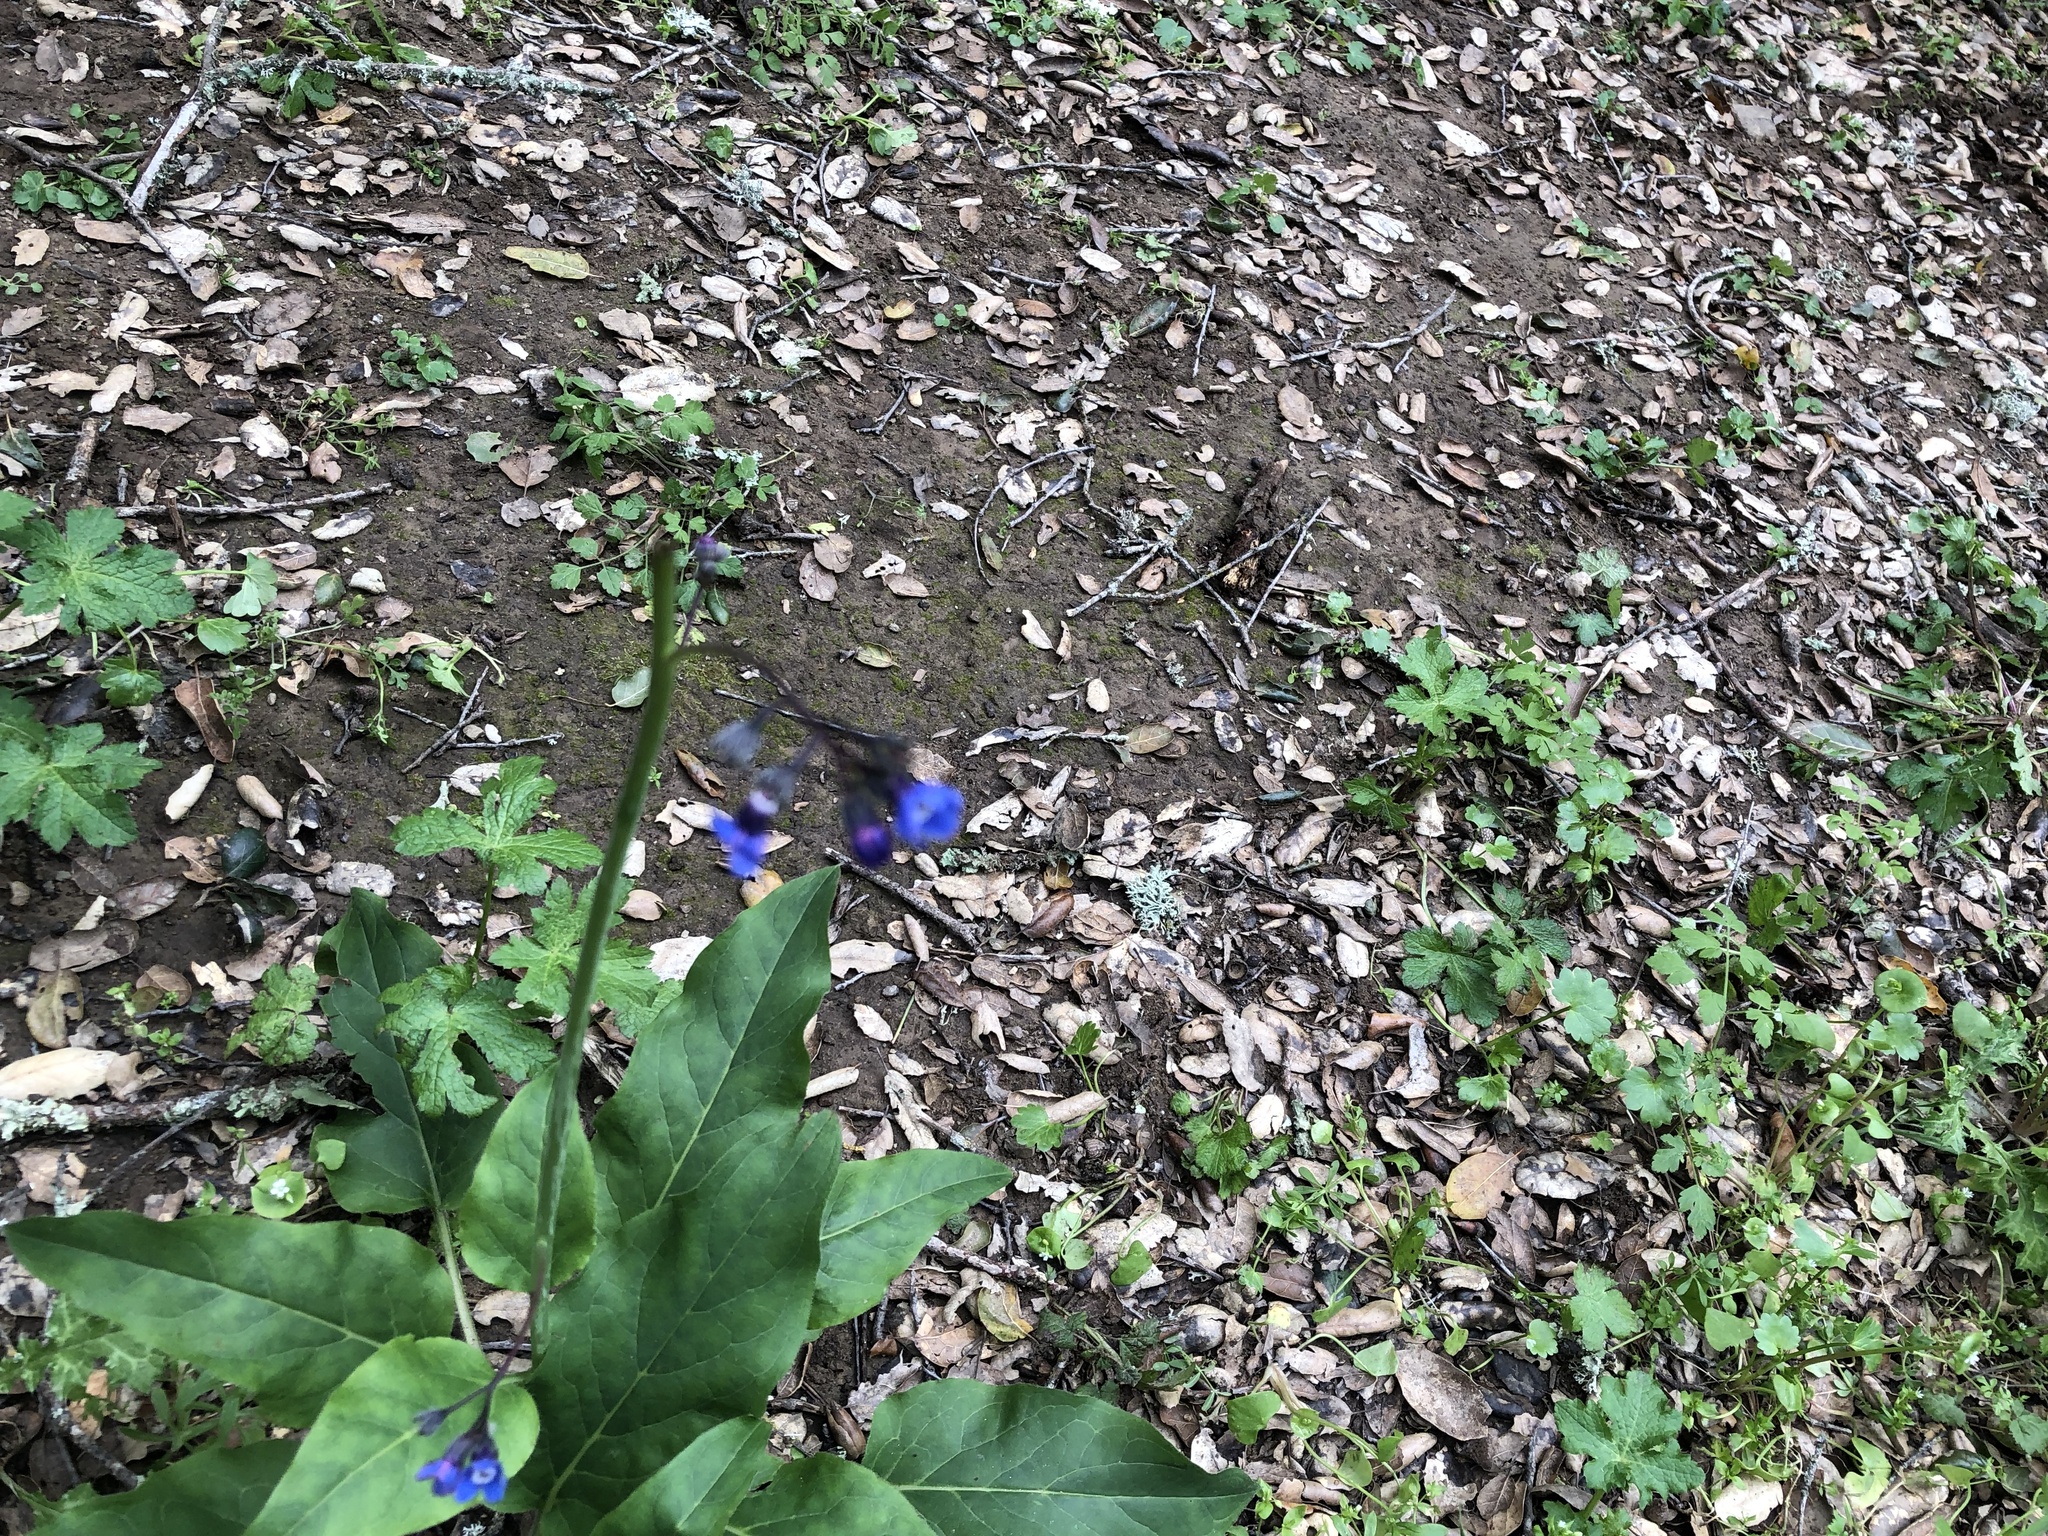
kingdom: Plantae
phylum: Tracheophyta
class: Magnoliopsida
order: Boraginales
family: Boraginaceae
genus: Adelinia
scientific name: Adelinia grande
